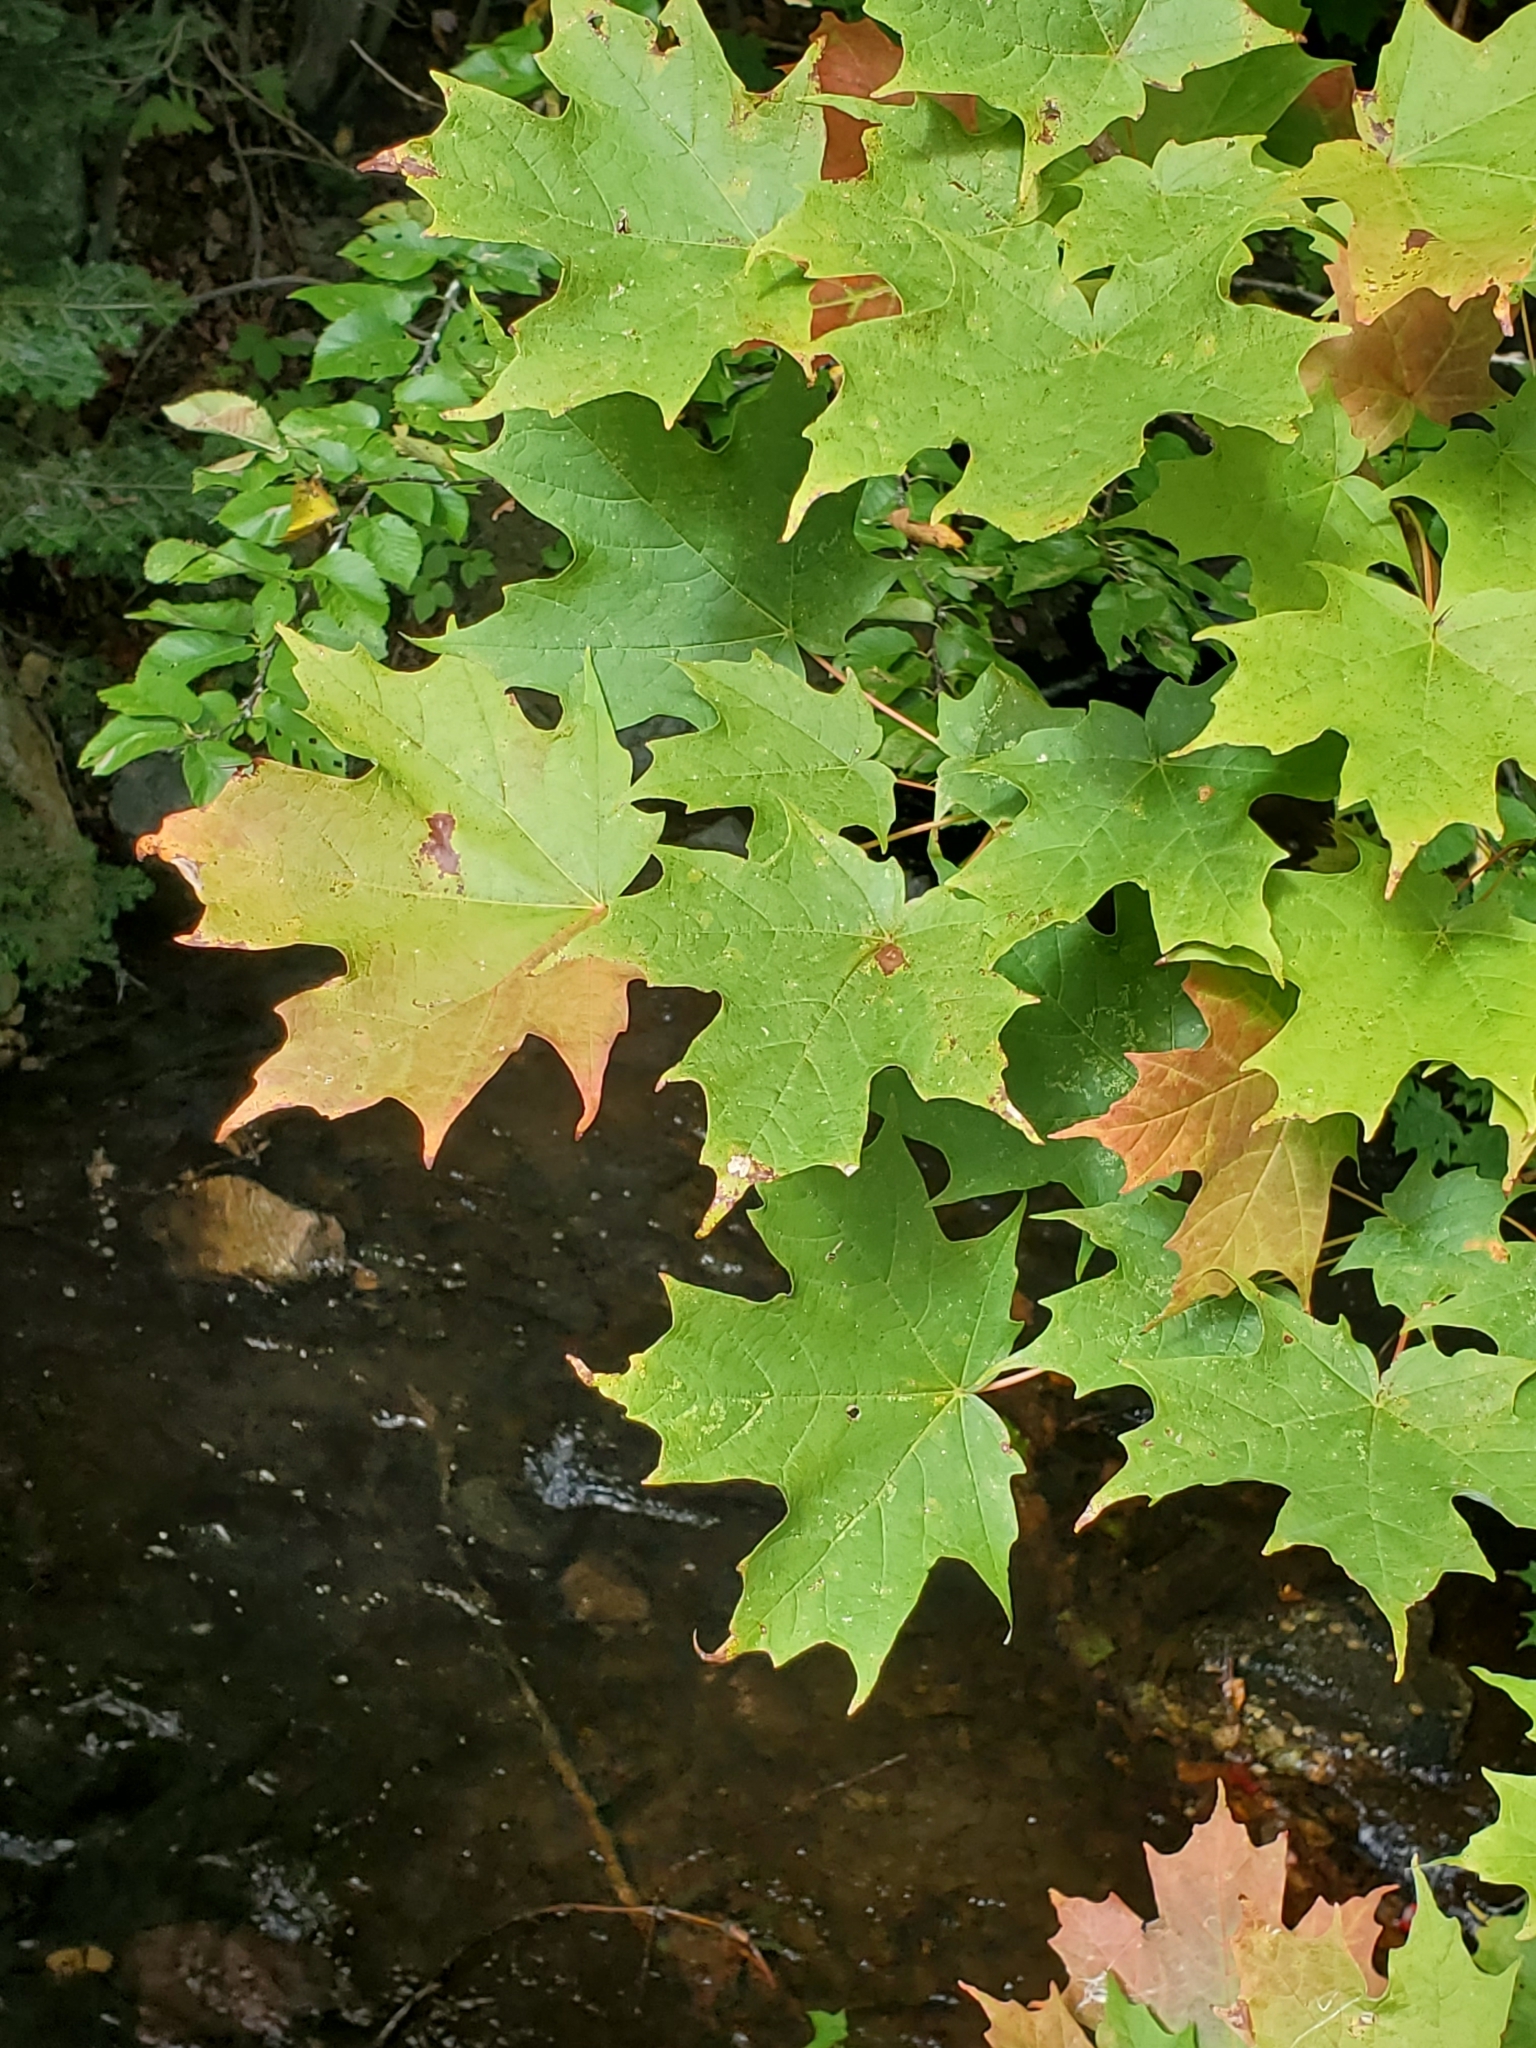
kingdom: Plantae
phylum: Tracheophyta
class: Magnoliopsida
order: Sapindales
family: Sapindaceae
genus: Acer
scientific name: Acer saccharum
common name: Sugar maple
